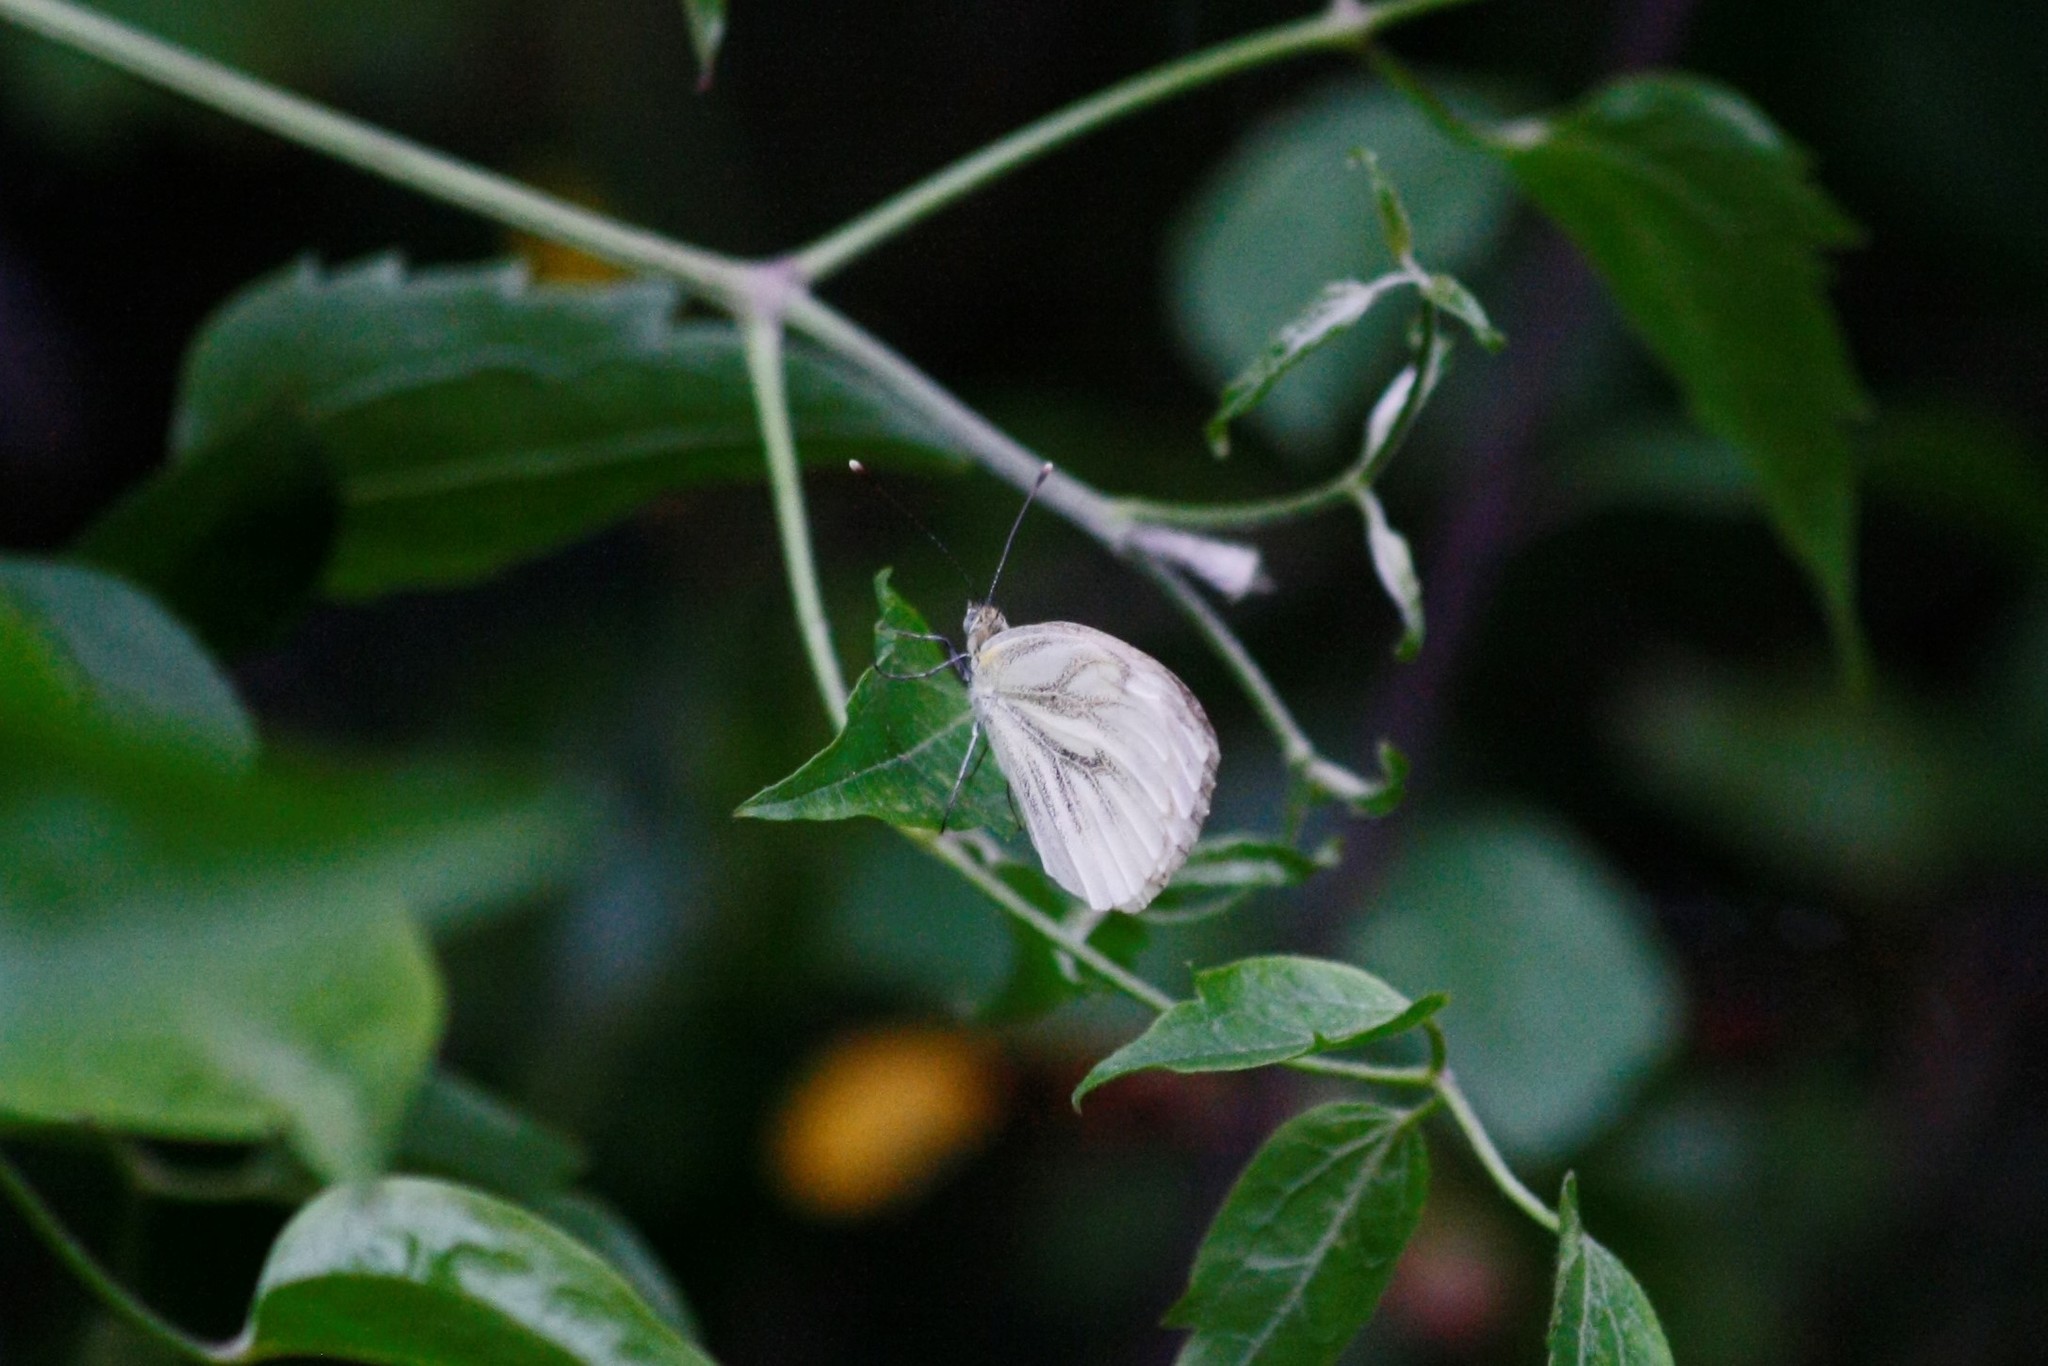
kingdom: Animalia
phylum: Arthropoda
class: Insecta
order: Lepidoptera
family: Pieridae
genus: Pieris
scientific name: Pieris napi
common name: Green-veined white
